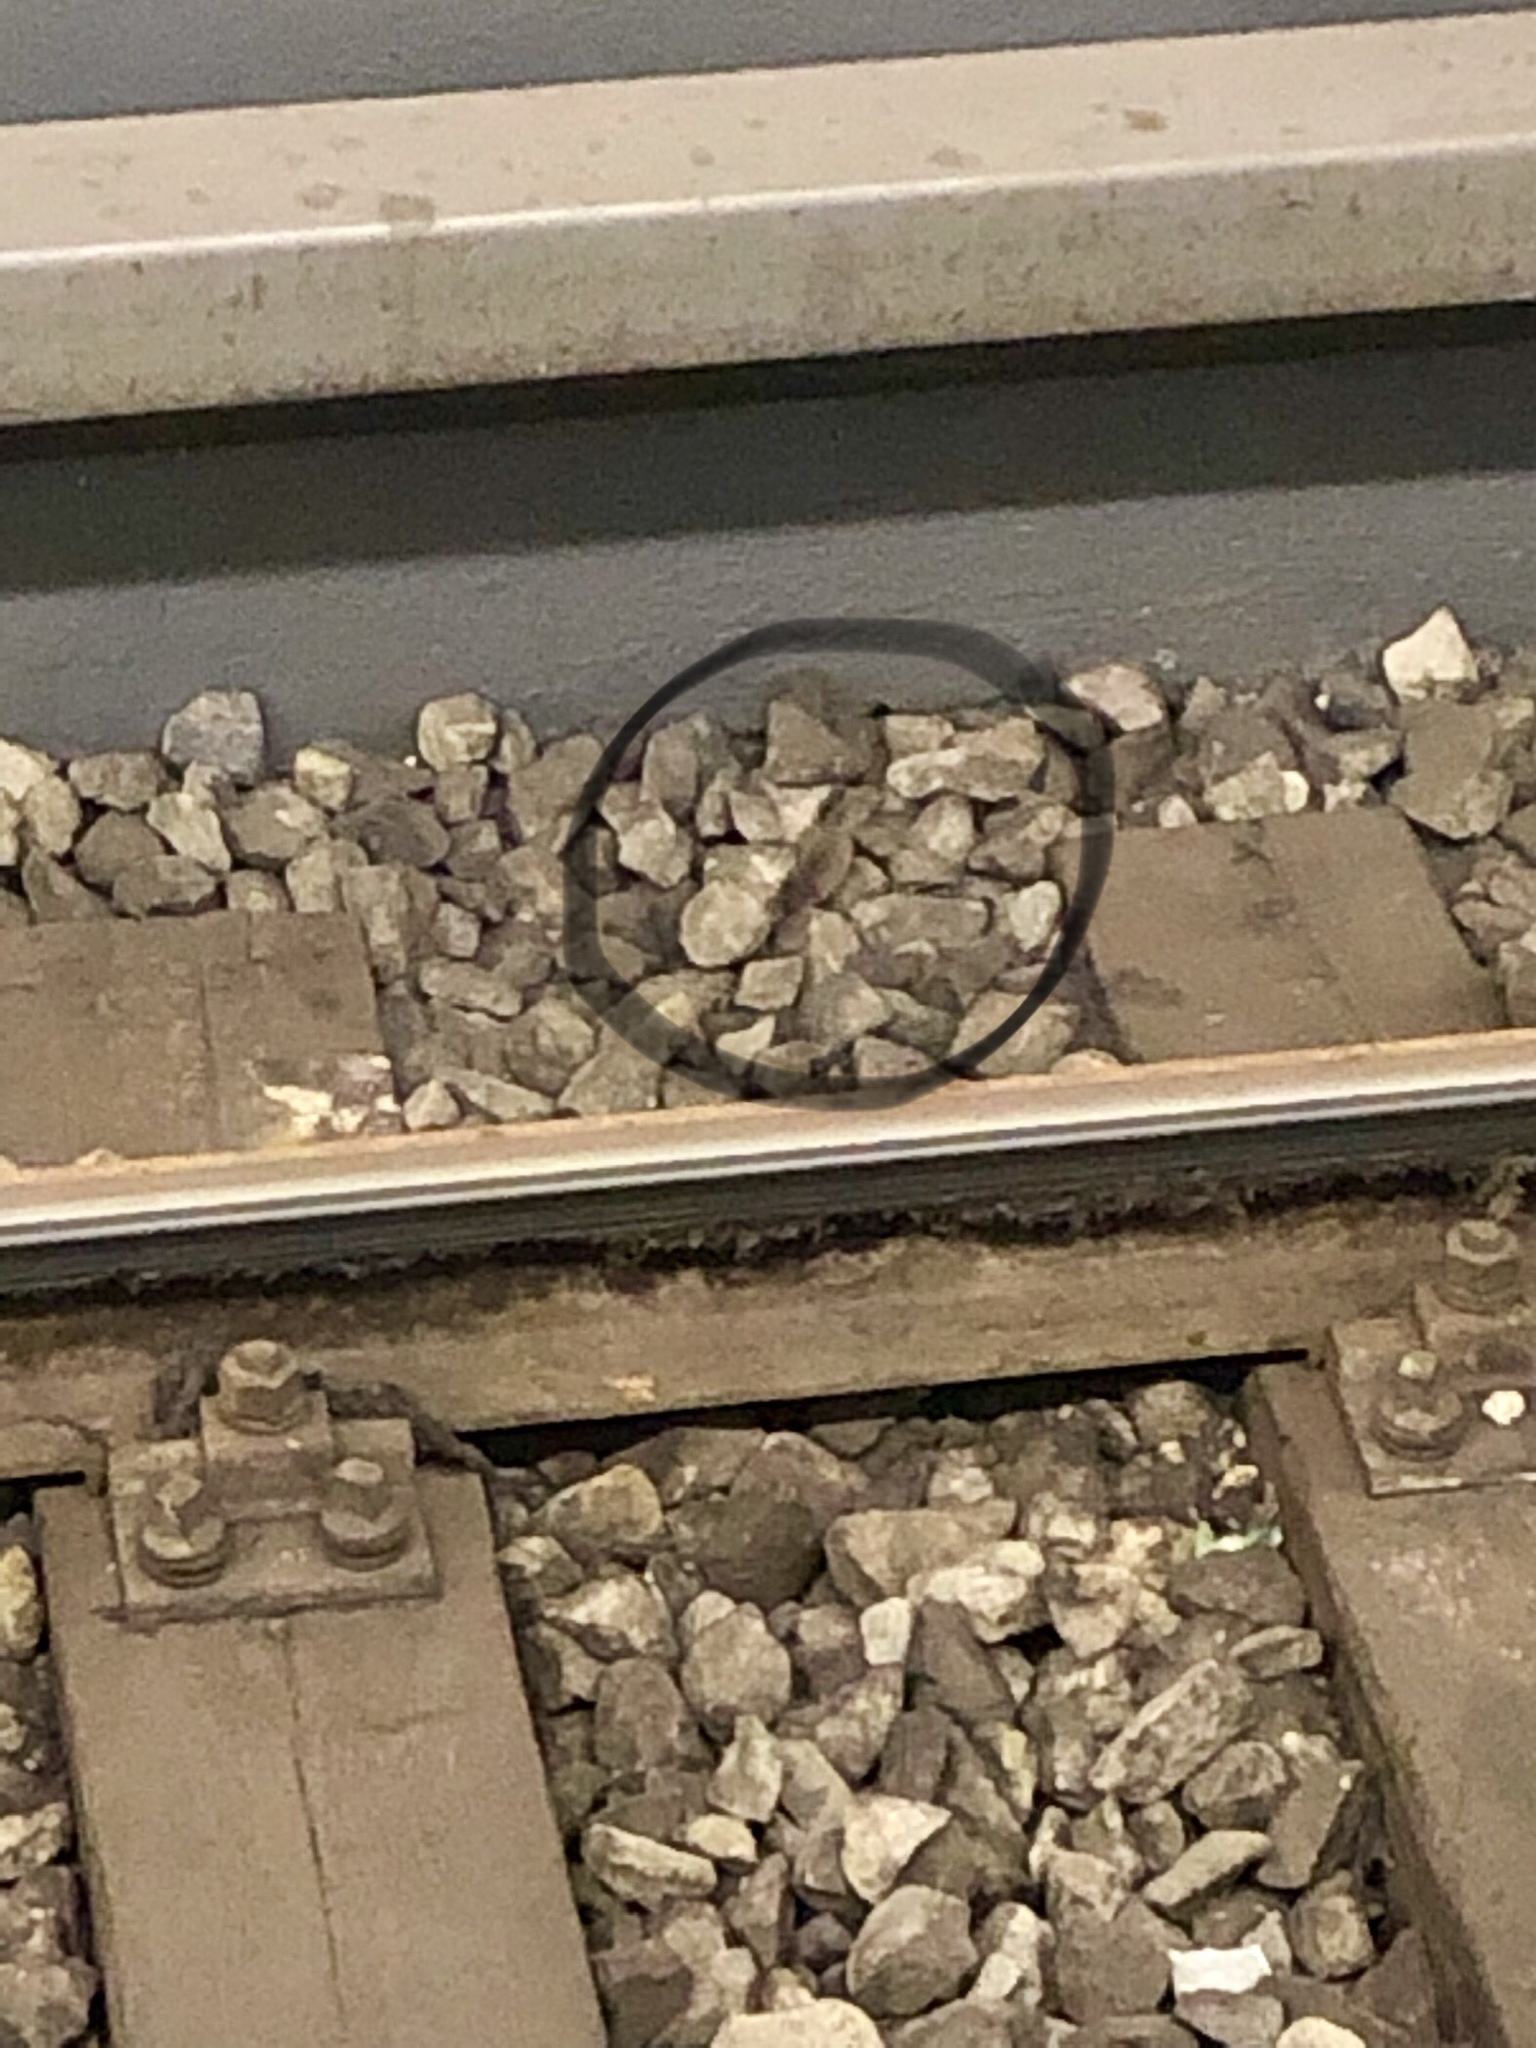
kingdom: Animalia
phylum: Chordata
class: Mammalia
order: Rodentia
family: Muridae
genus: Mus
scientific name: Mus musculus
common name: House mouse
